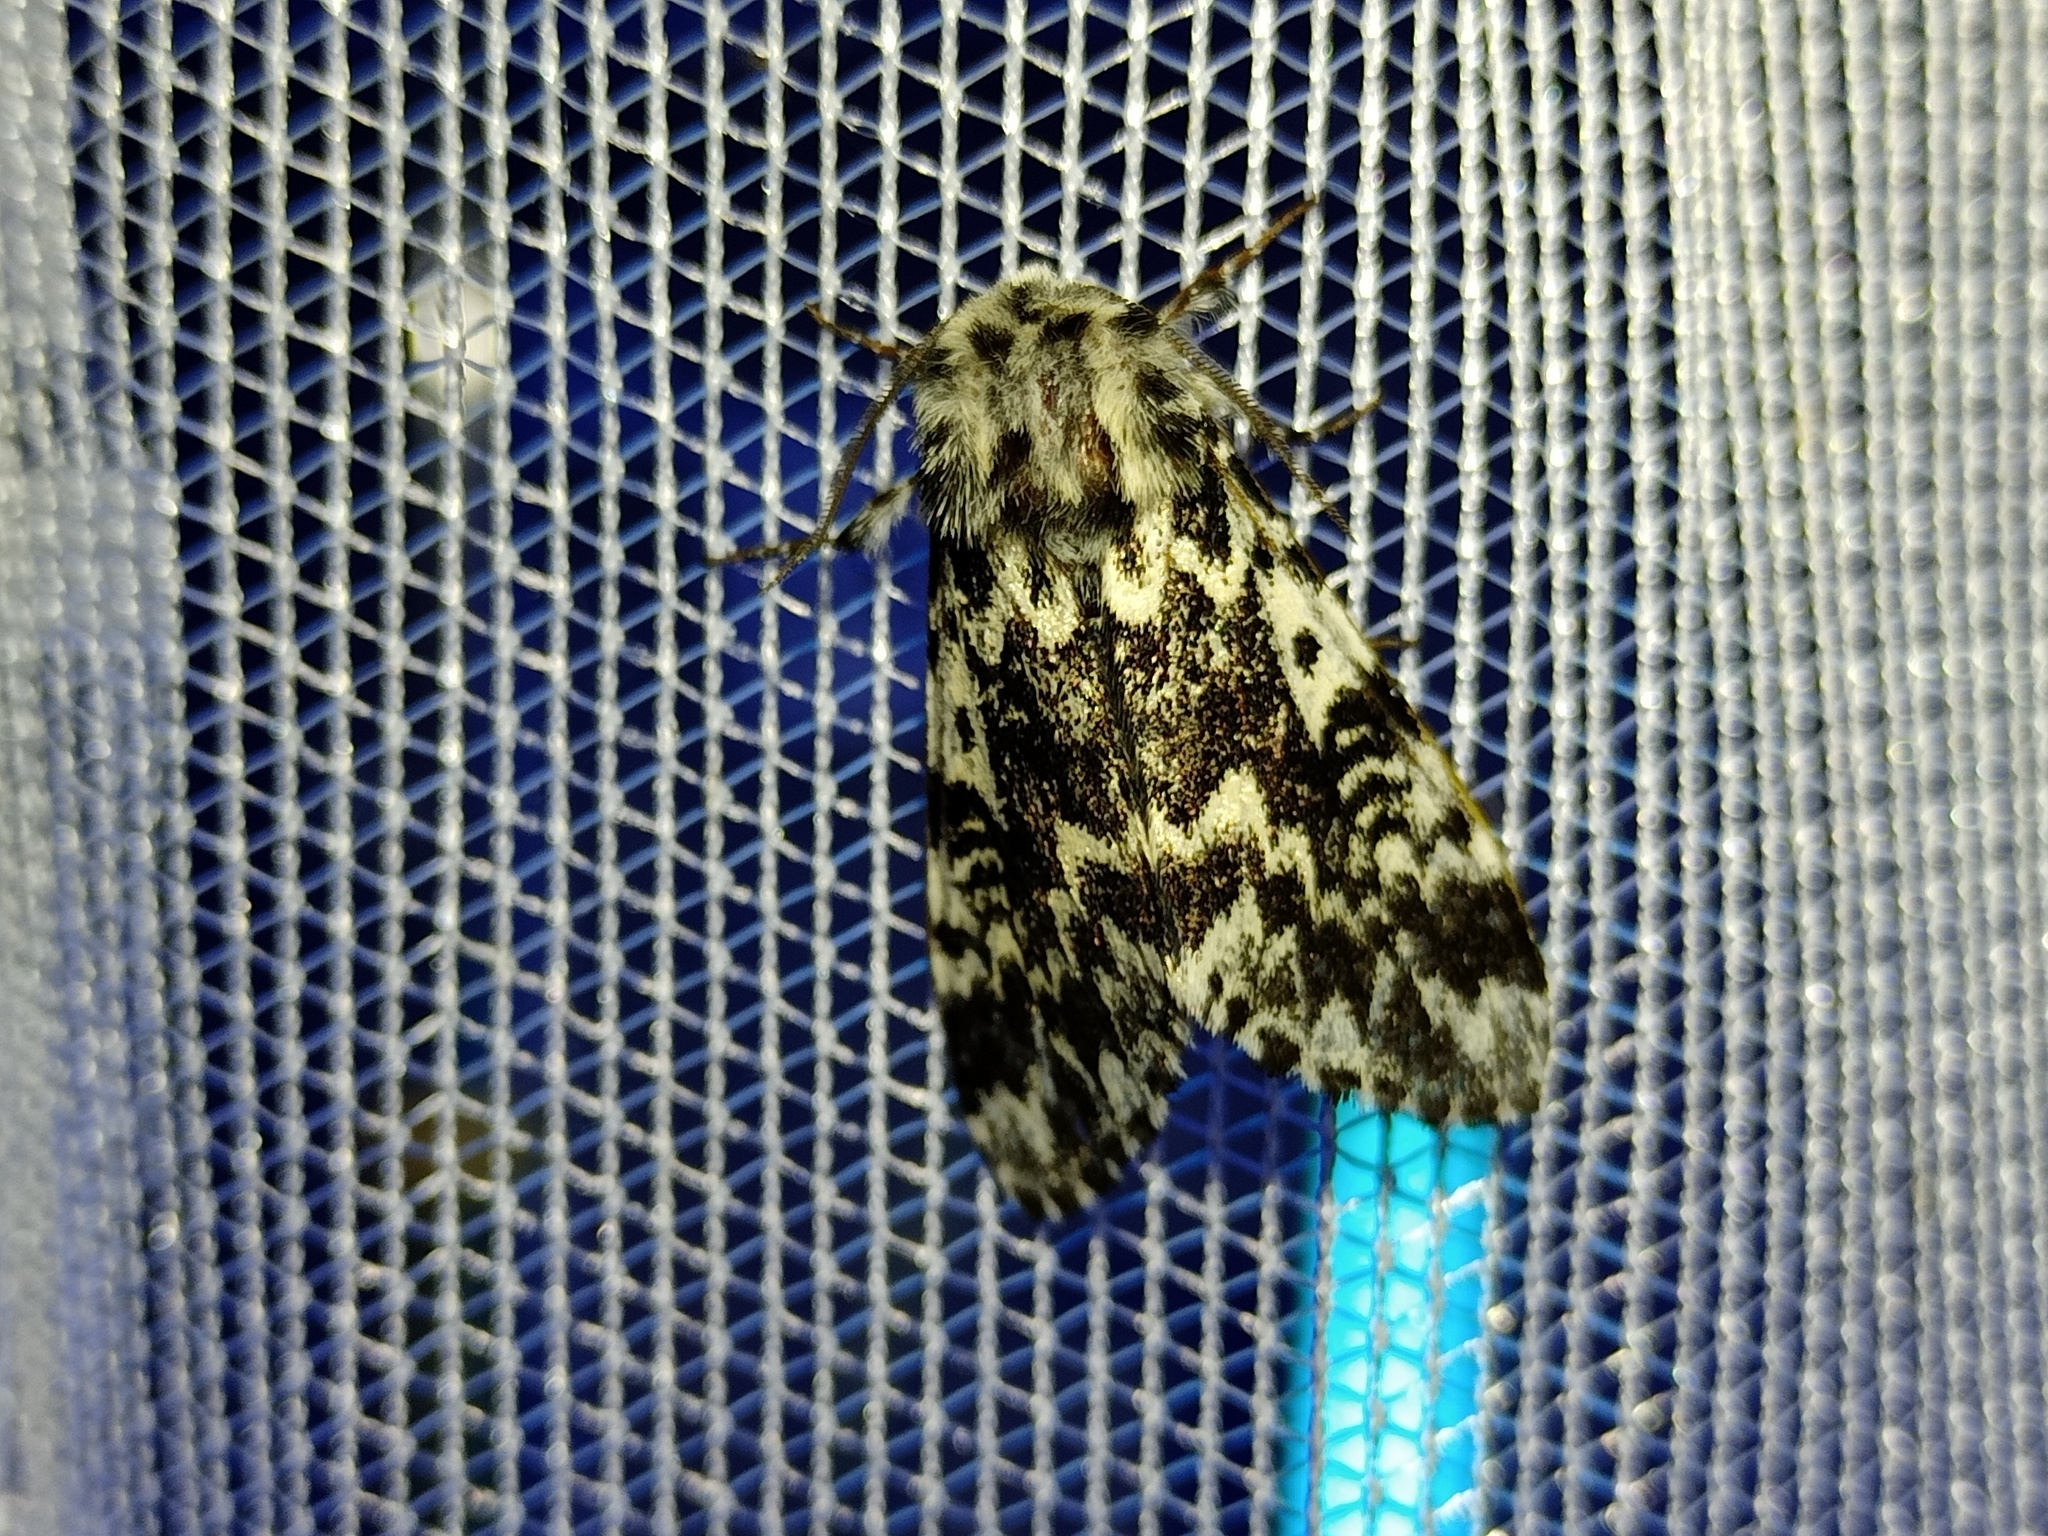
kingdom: Animalia
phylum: Arthropoda
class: Insecta
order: Lepidoptera
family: Noctuidae
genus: Panthea
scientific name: Panthea coenobita
